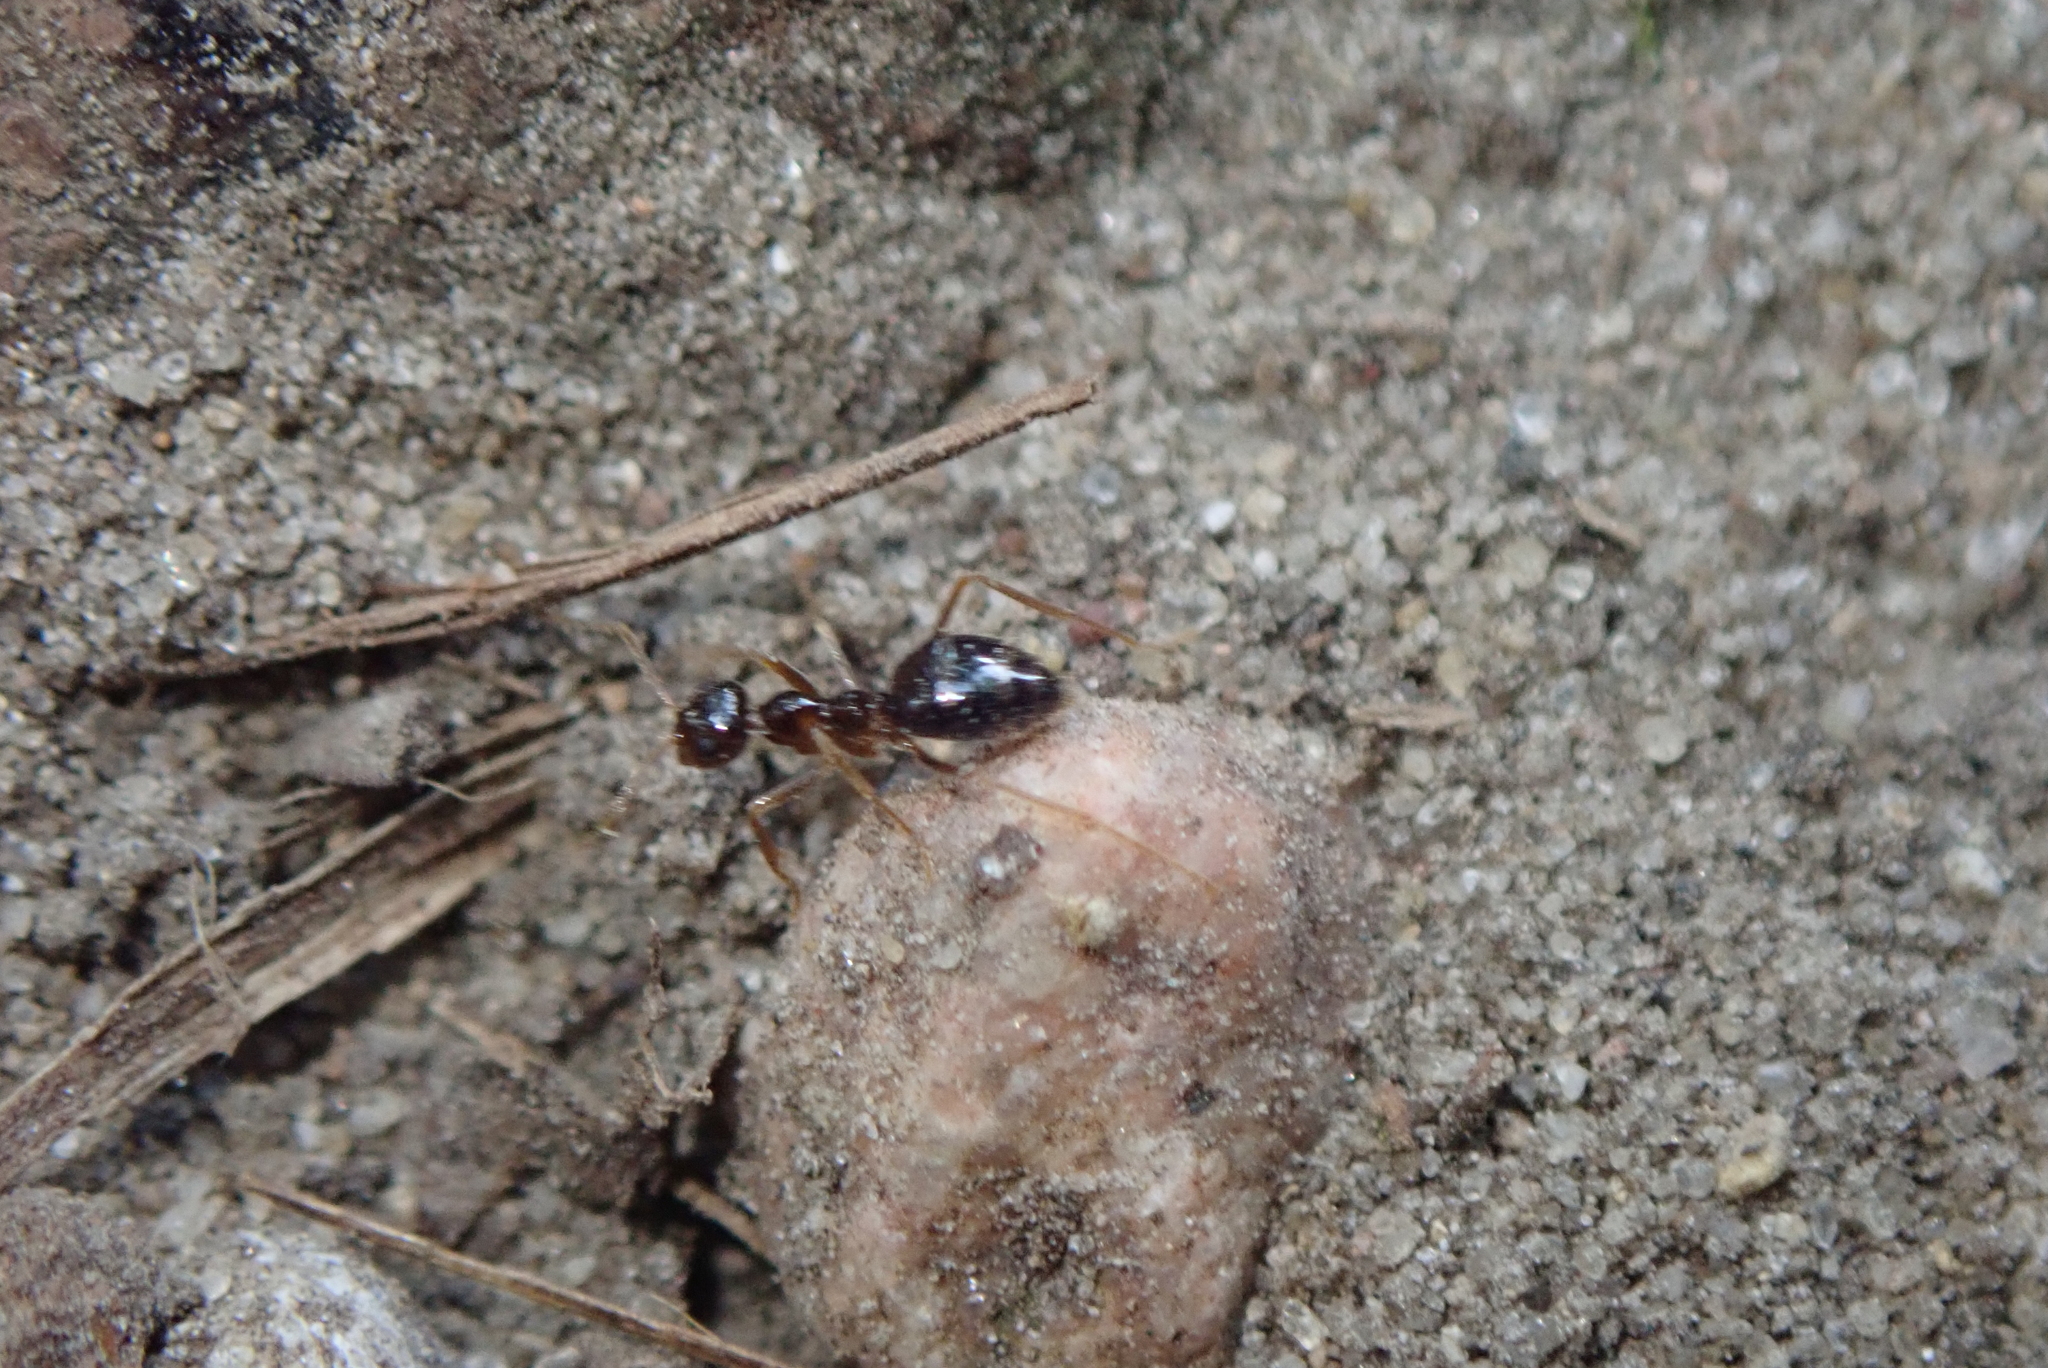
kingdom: Animalia
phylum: Arthropoda
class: Insecta
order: Hymenoptera
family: Formicidae
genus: Prenolepis
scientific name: Prenolepis imparis
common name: Small honey ant
